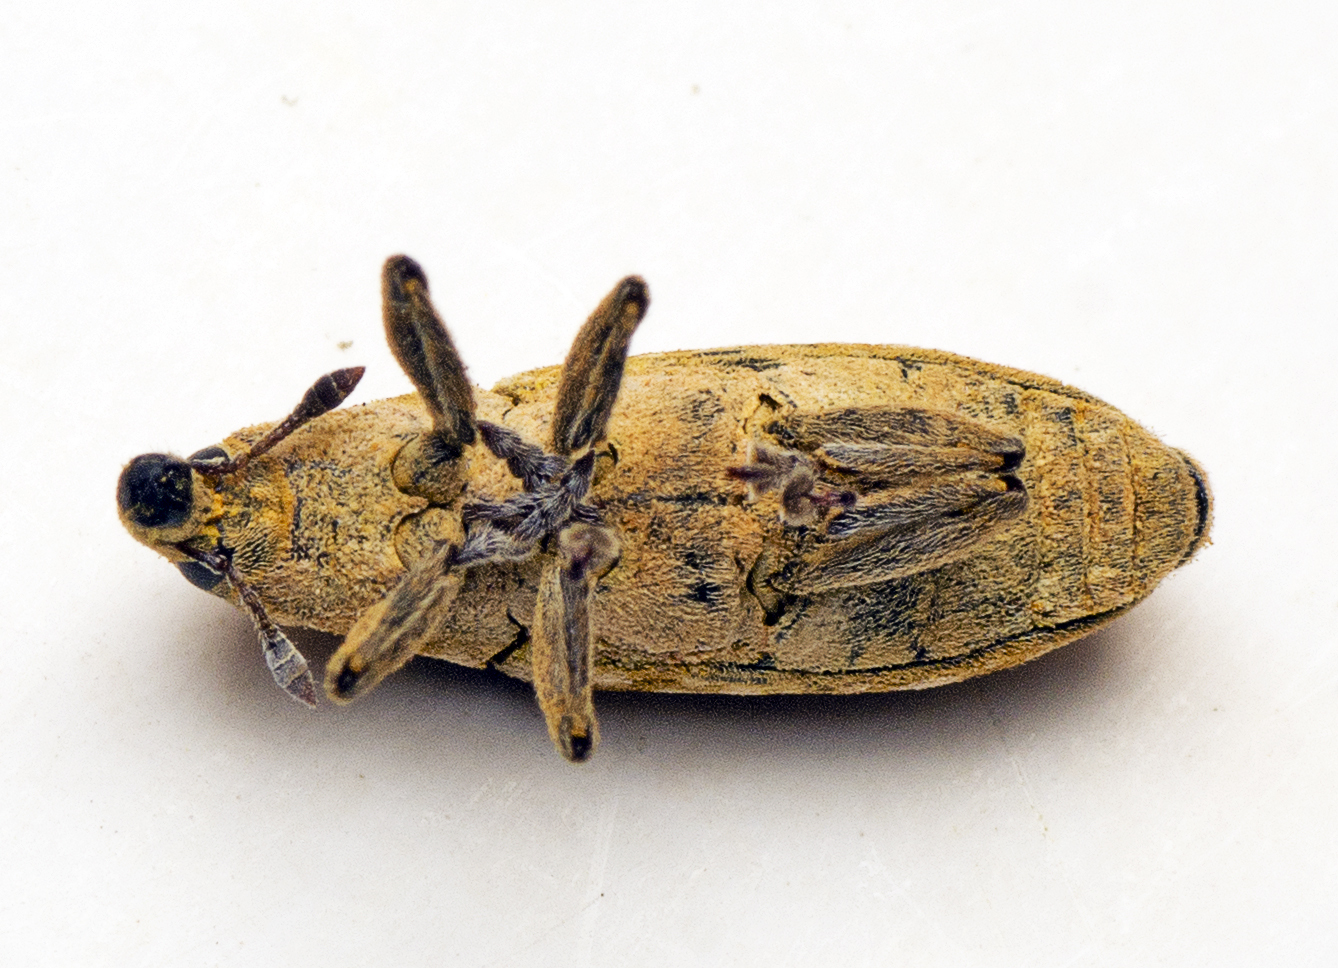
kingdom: Animalia
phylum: Arthropoda
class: Insecta
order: Coleoptera
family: Curculionidae
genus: Gasteroclisus
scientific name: Gasteroclisus
